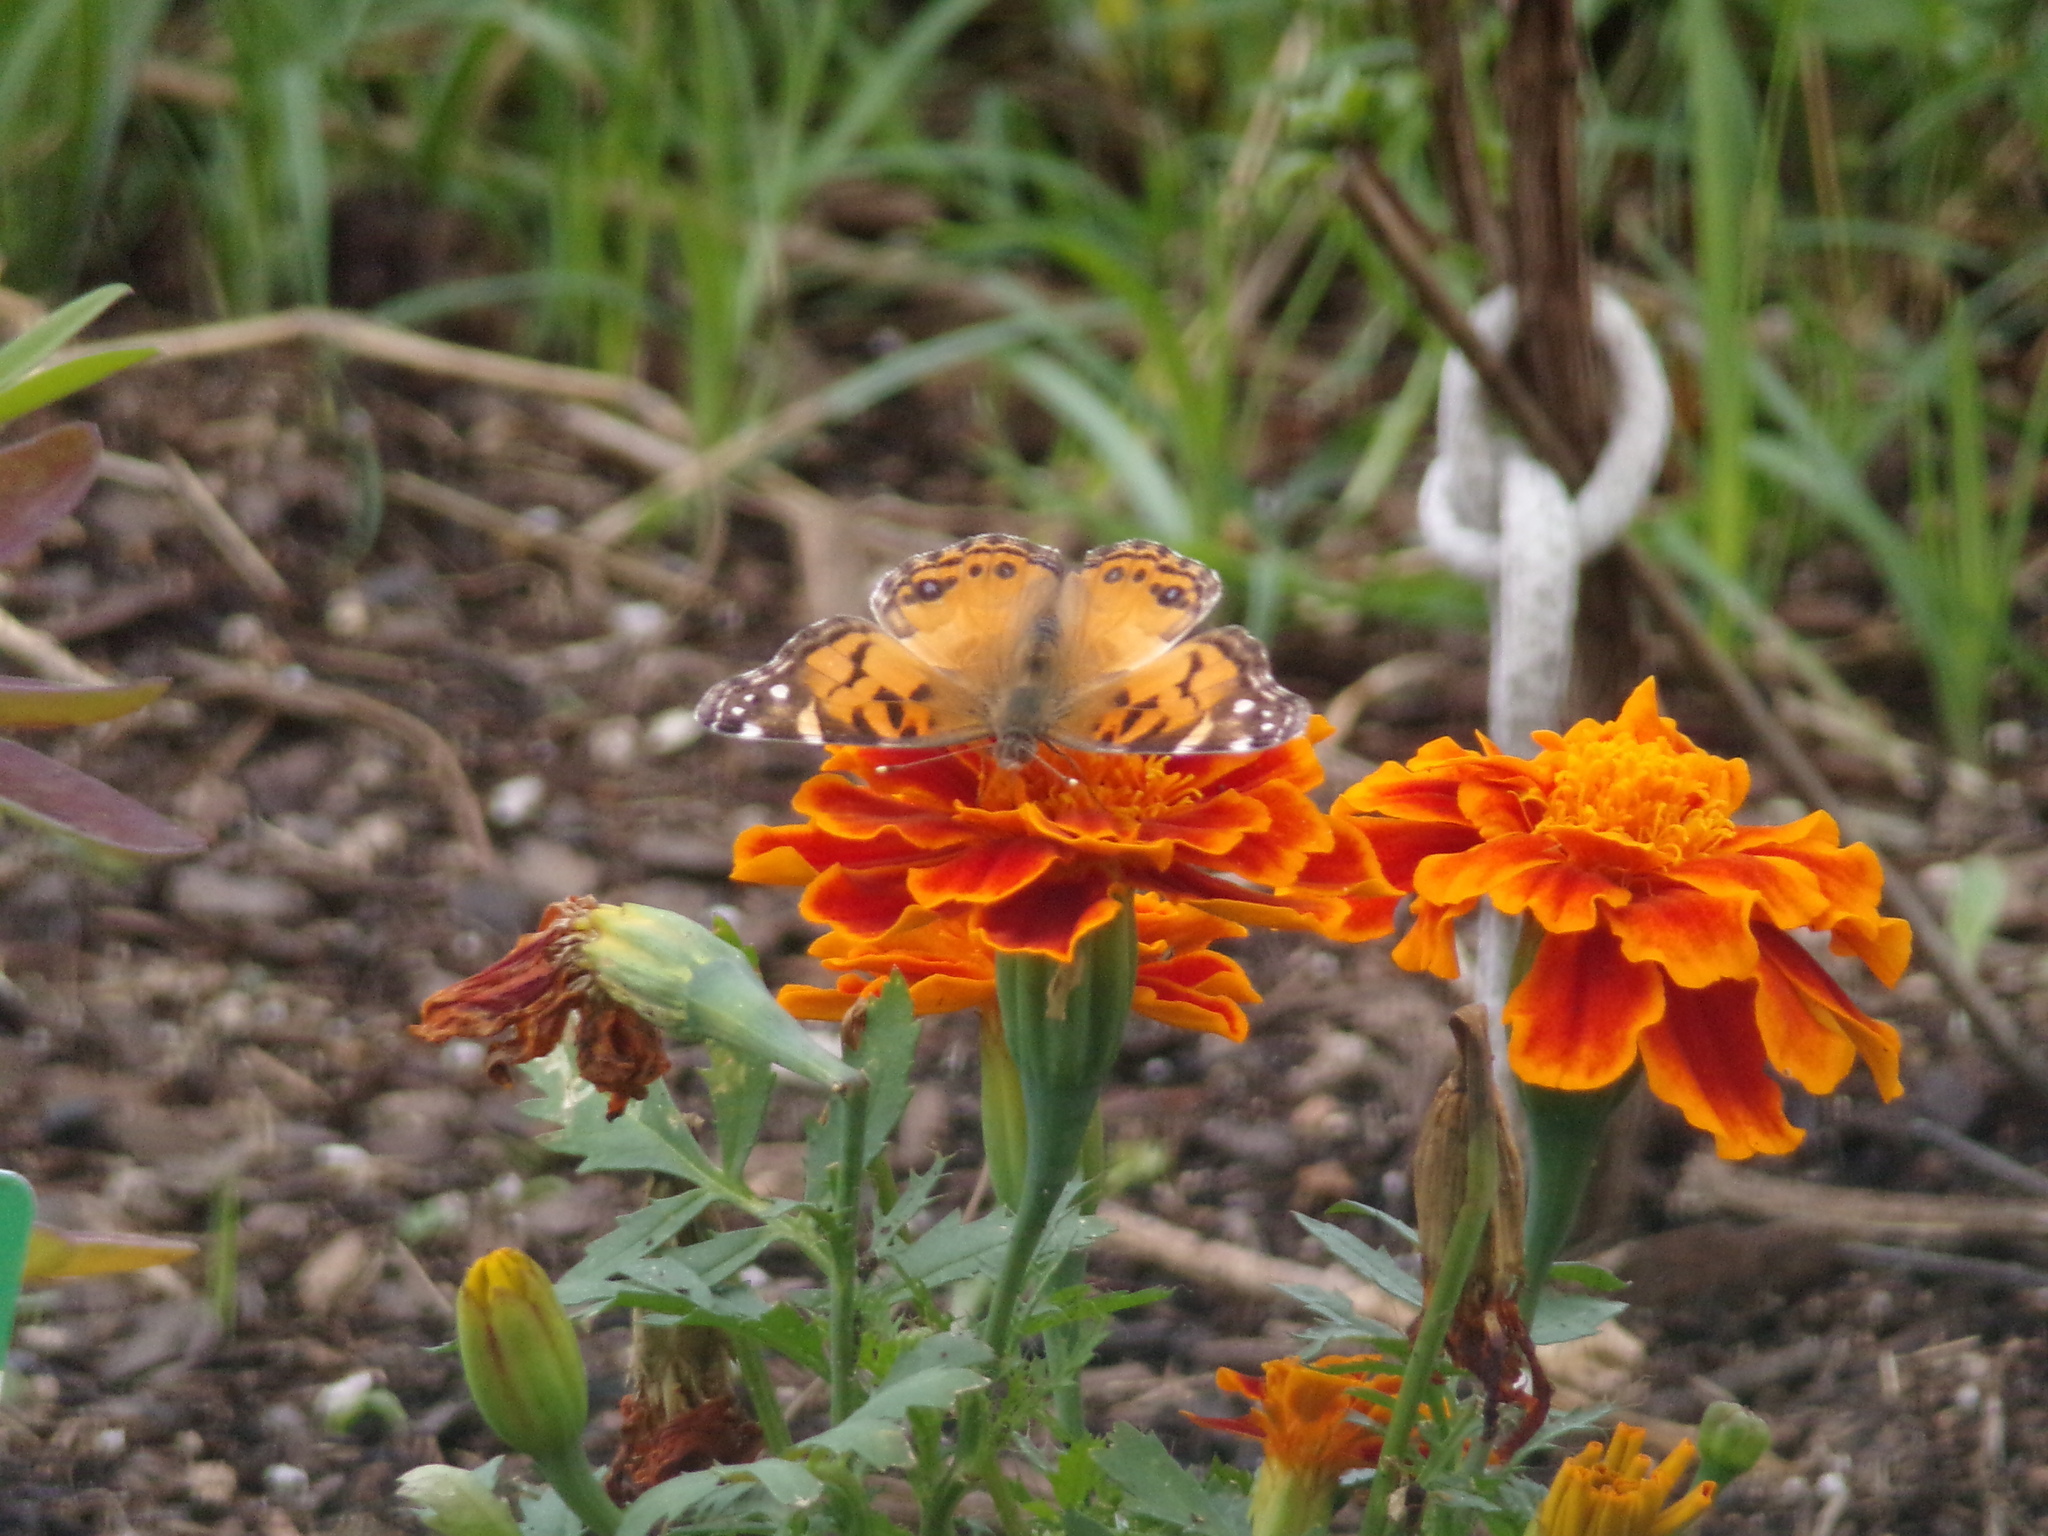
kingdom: Animalia
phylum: Arthropoda
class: Insecta
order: Lepidoptera
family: Nymphalidae
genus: Vanessa
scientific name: Vanessa virginiensis
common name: American lady
